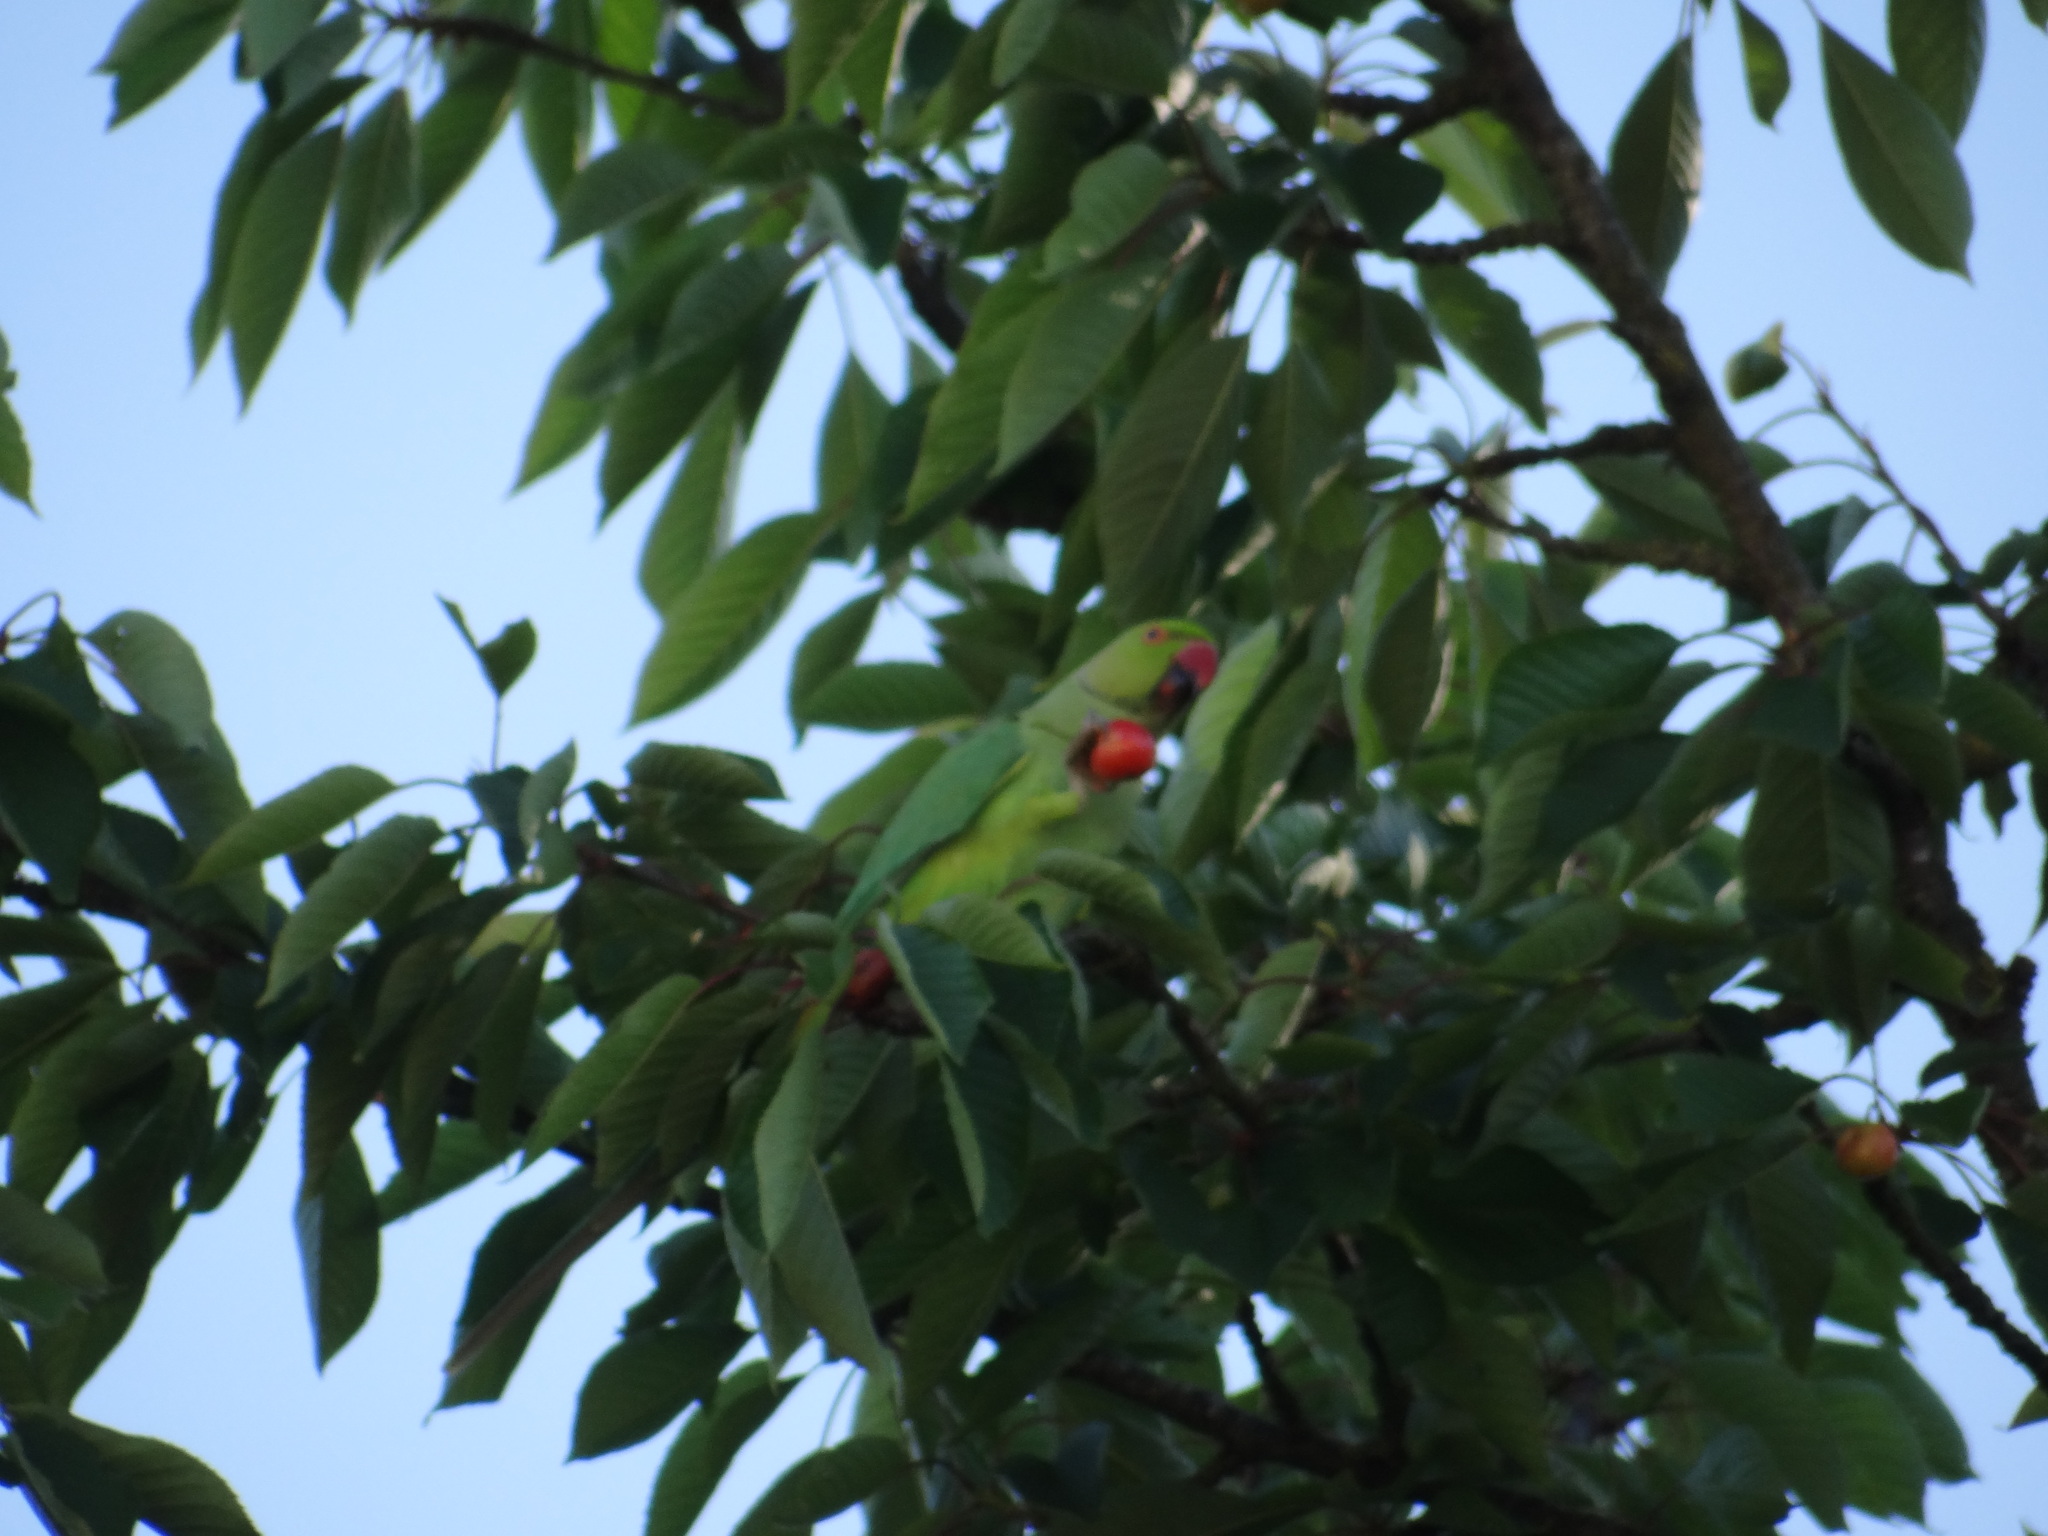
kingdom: Animalia
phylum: Chordata
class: Aves
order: Psittaciformes
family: Psittacidae
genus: Psittacula
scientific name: Psittacula krameri
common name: Rose-ringed parakeet
